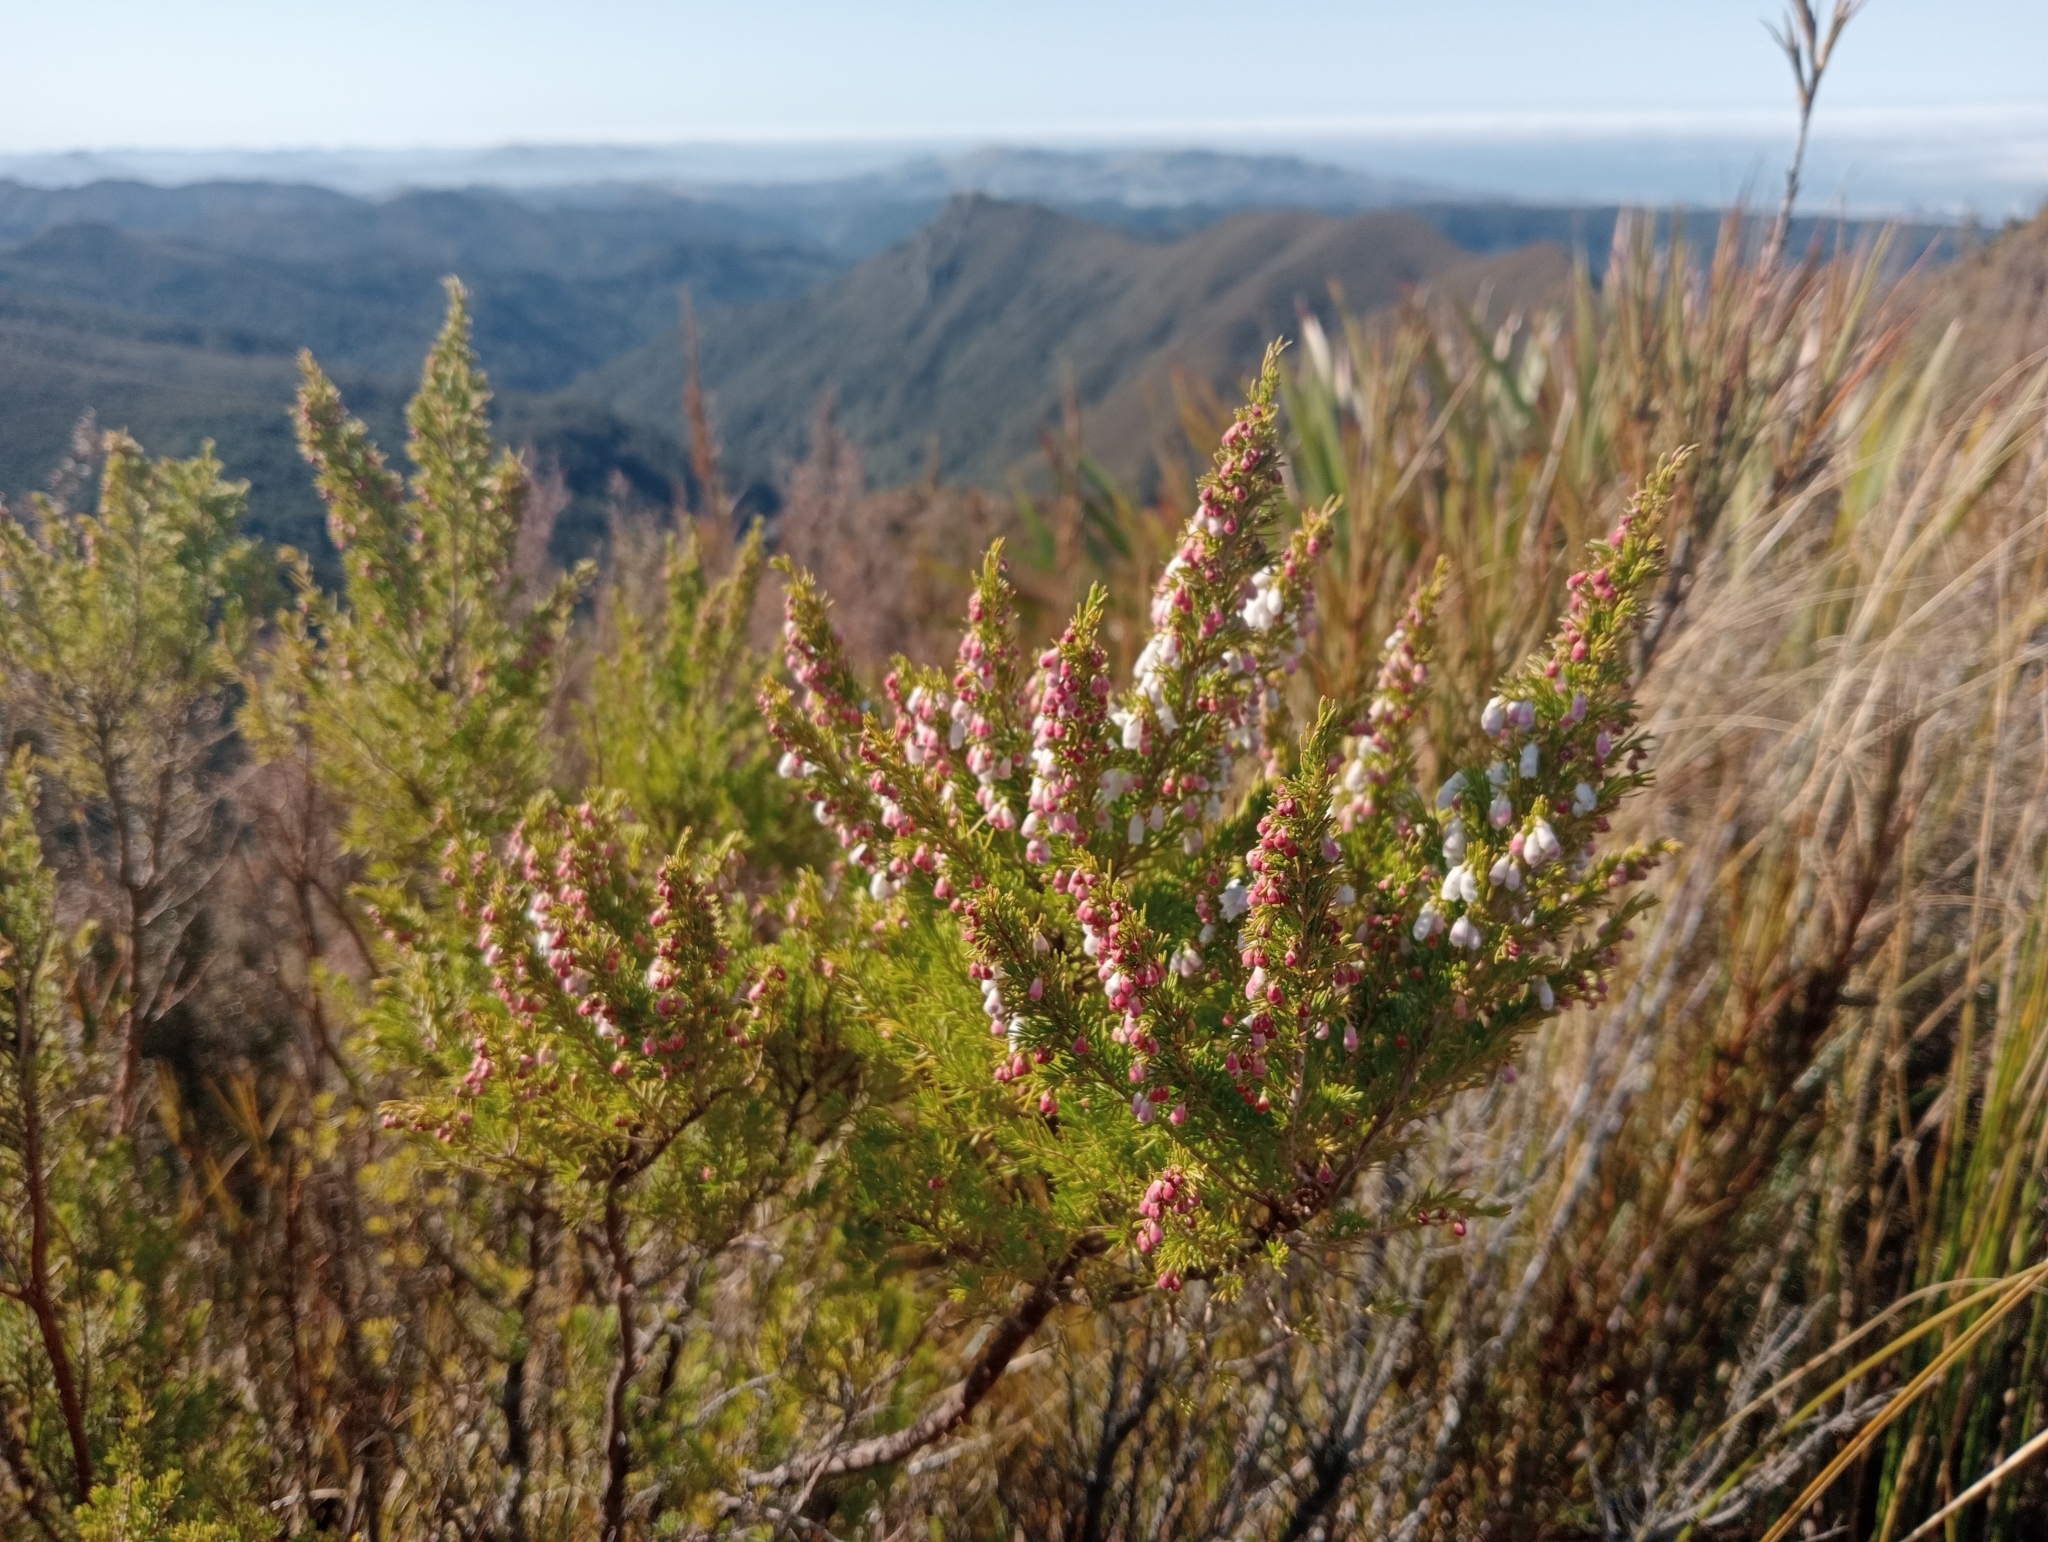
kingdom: Plantae
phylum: Tracheophyta
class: Magnoliopsida
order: Ericales
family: Ericaceae
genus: Erica
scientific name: Erica lusitanica
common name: Spanish heath
